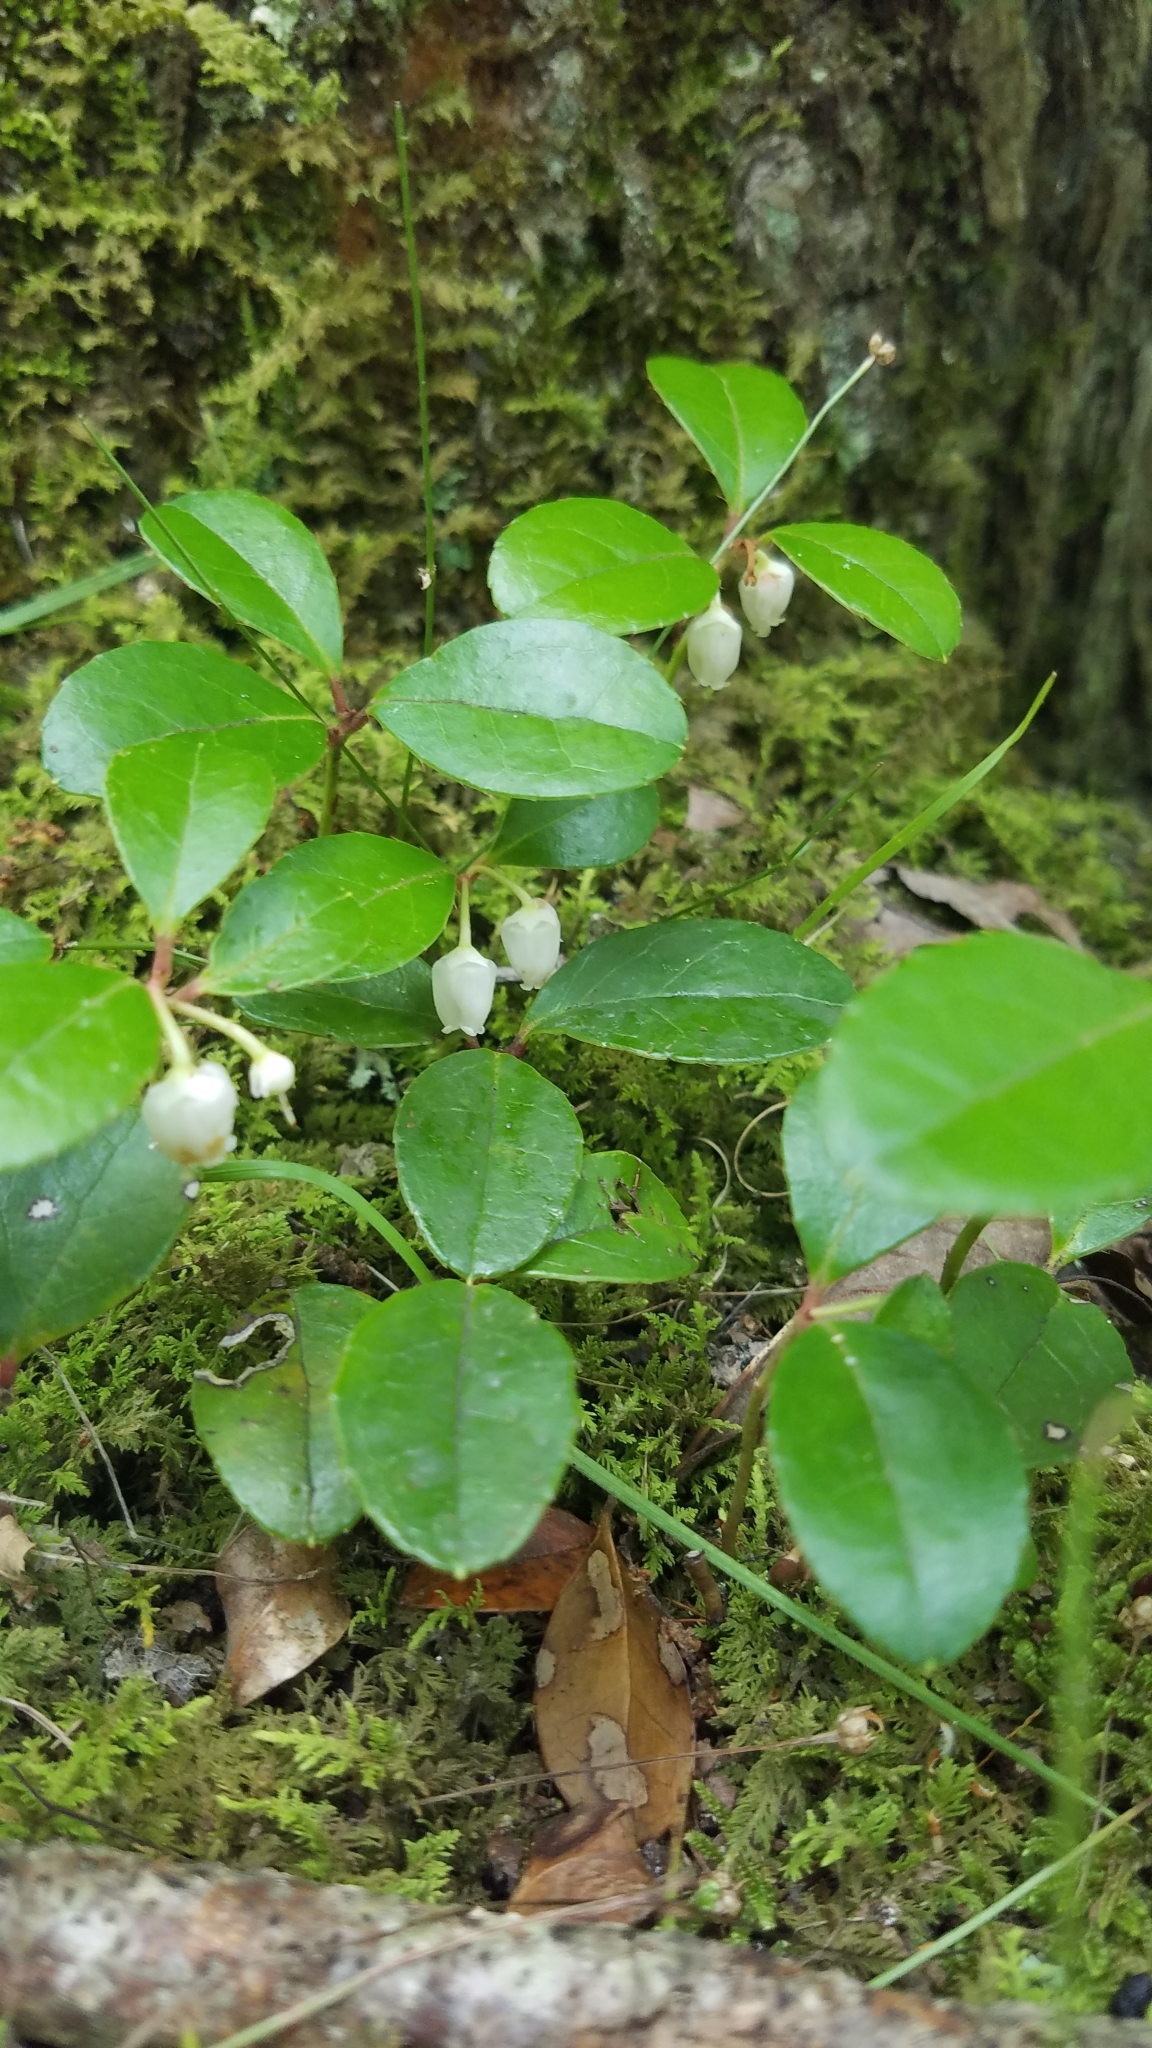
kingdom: Plantae
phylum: Tracheophyta
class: Magnoliopsida
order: Ericales
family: Ericaceae
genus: Gaultheria
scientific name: Gaultheria procumbens
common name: Checkerberry
